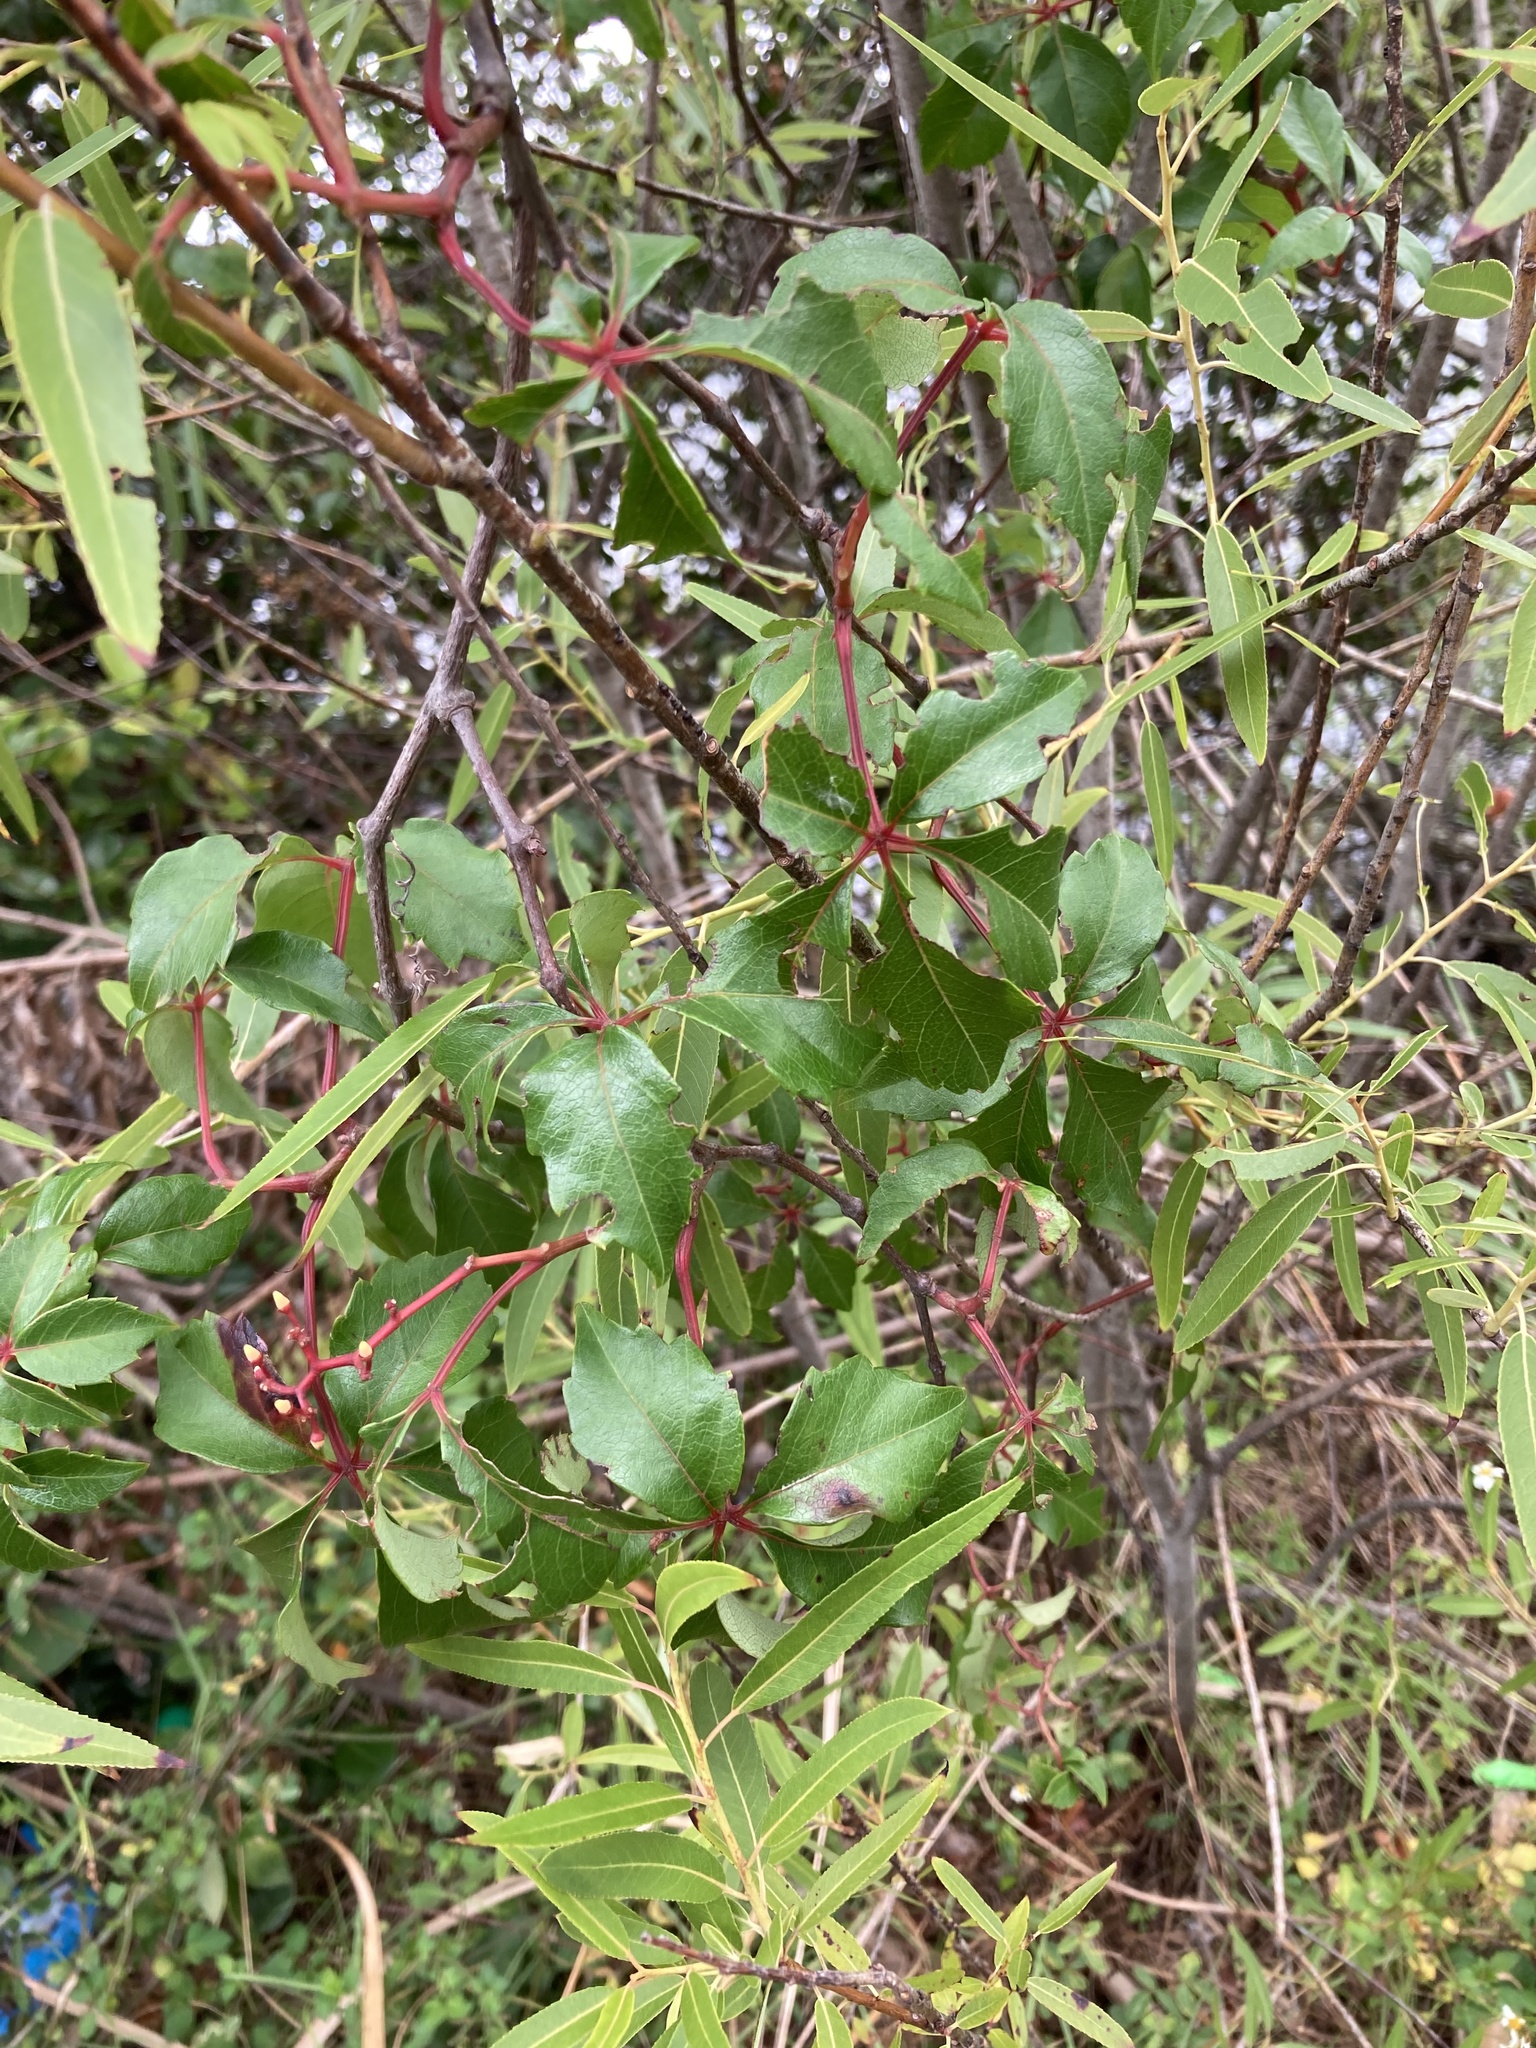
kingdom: Plantae
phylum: Tracheophyta
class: Magnoliopsida
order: Vitales
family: Vitaceae
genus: Parthenocissus
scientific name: Parthenocissus quinquefolia
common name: Virginia-creeper
